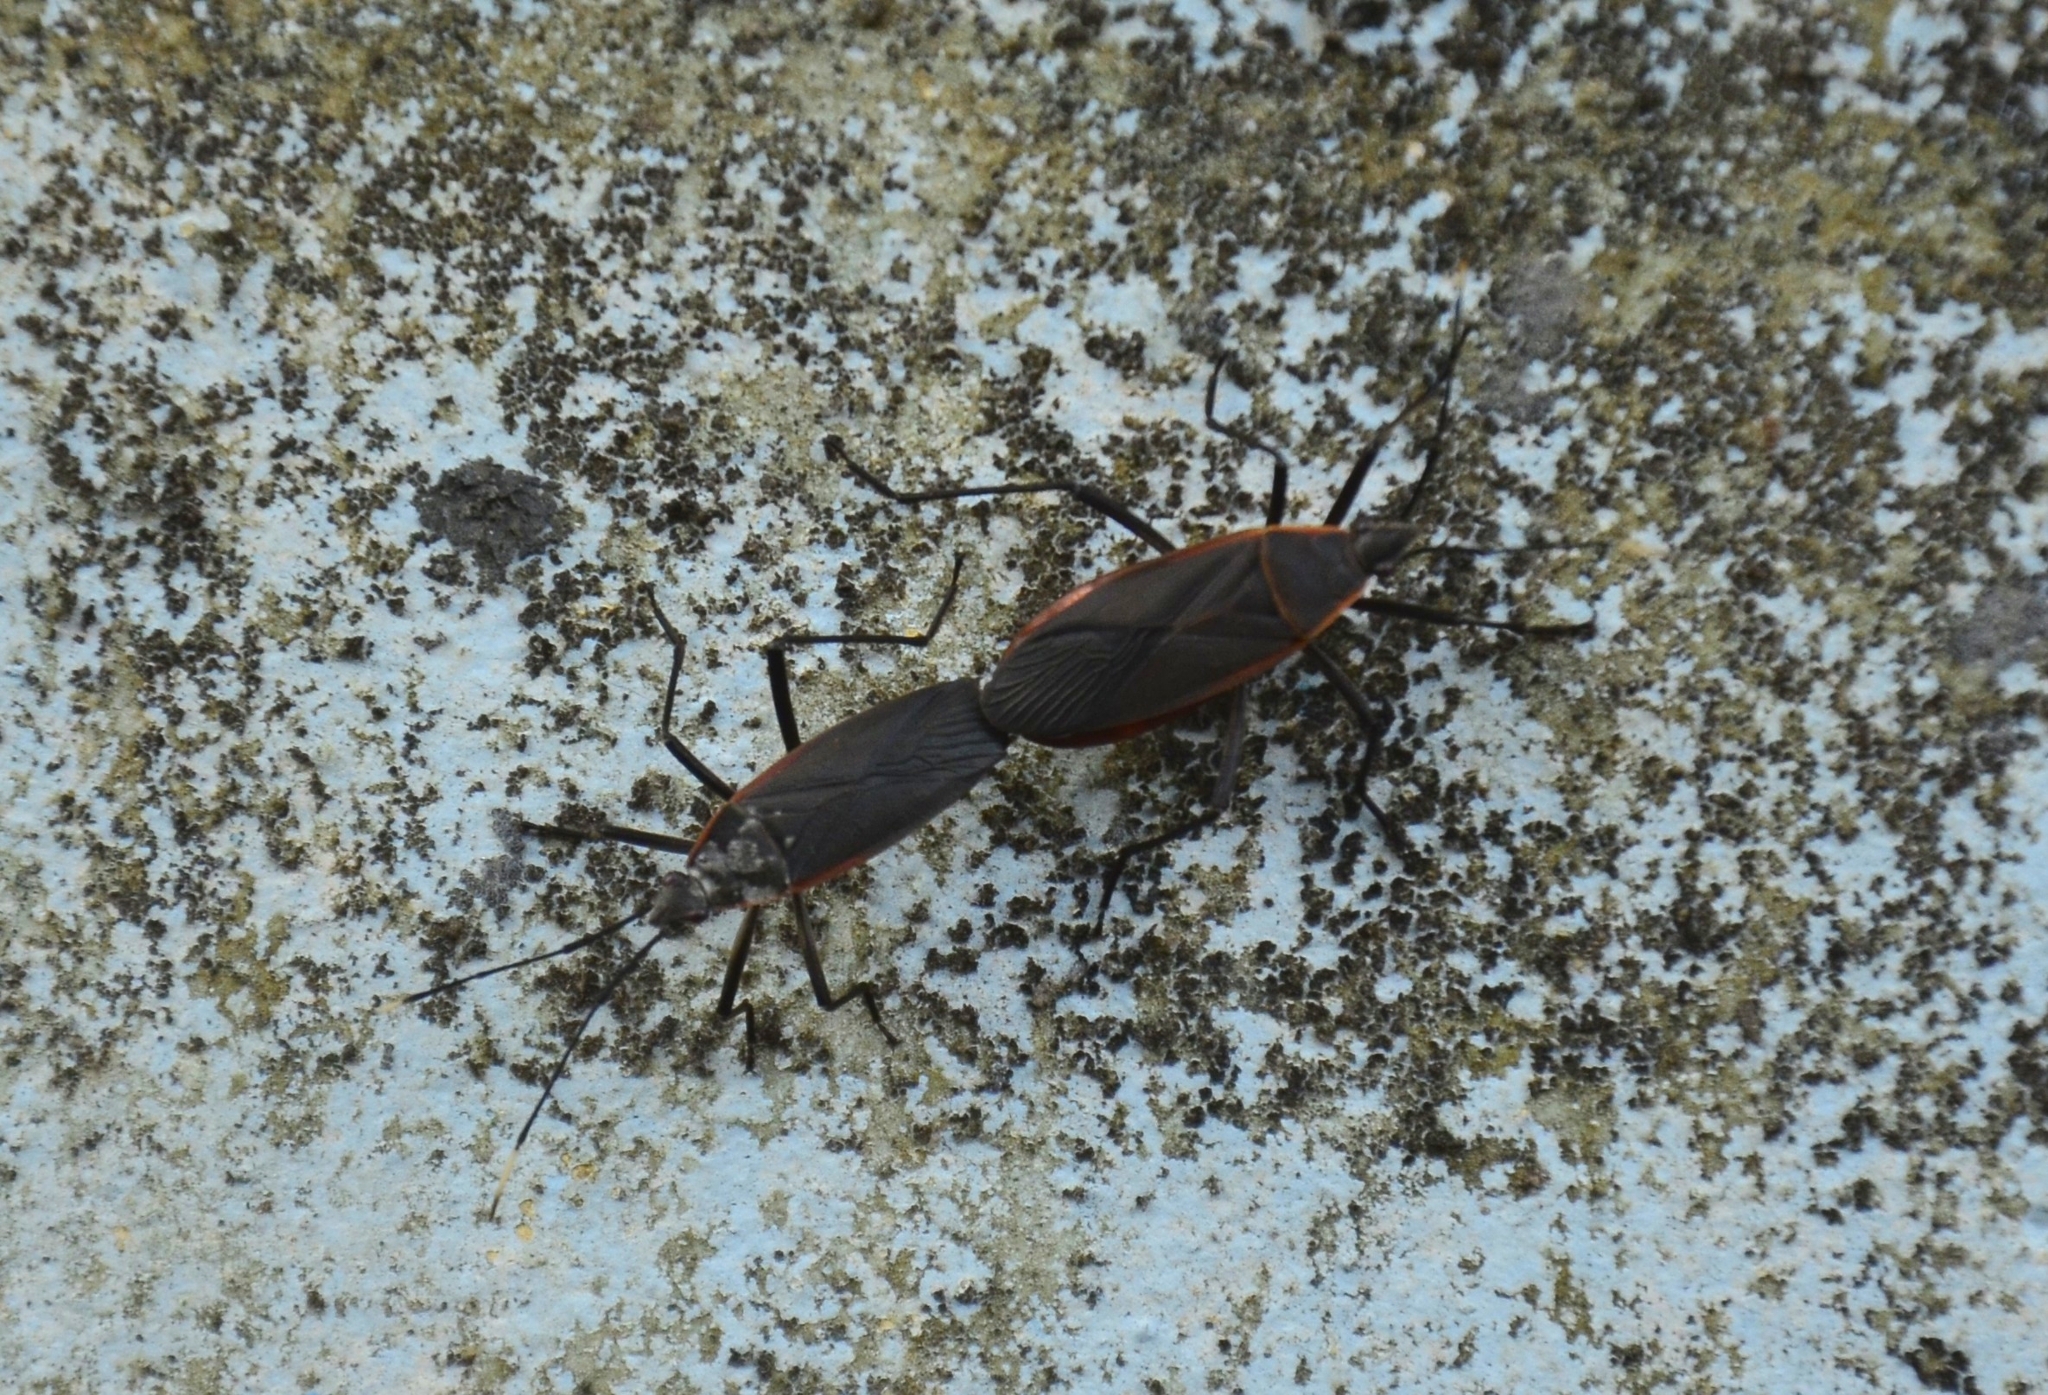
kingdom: Animalia
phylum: Arthropoda
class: Insecta
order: Hemiptera
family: Pyrrhocoridae
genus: Melamphaus
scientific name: Melamphaus
